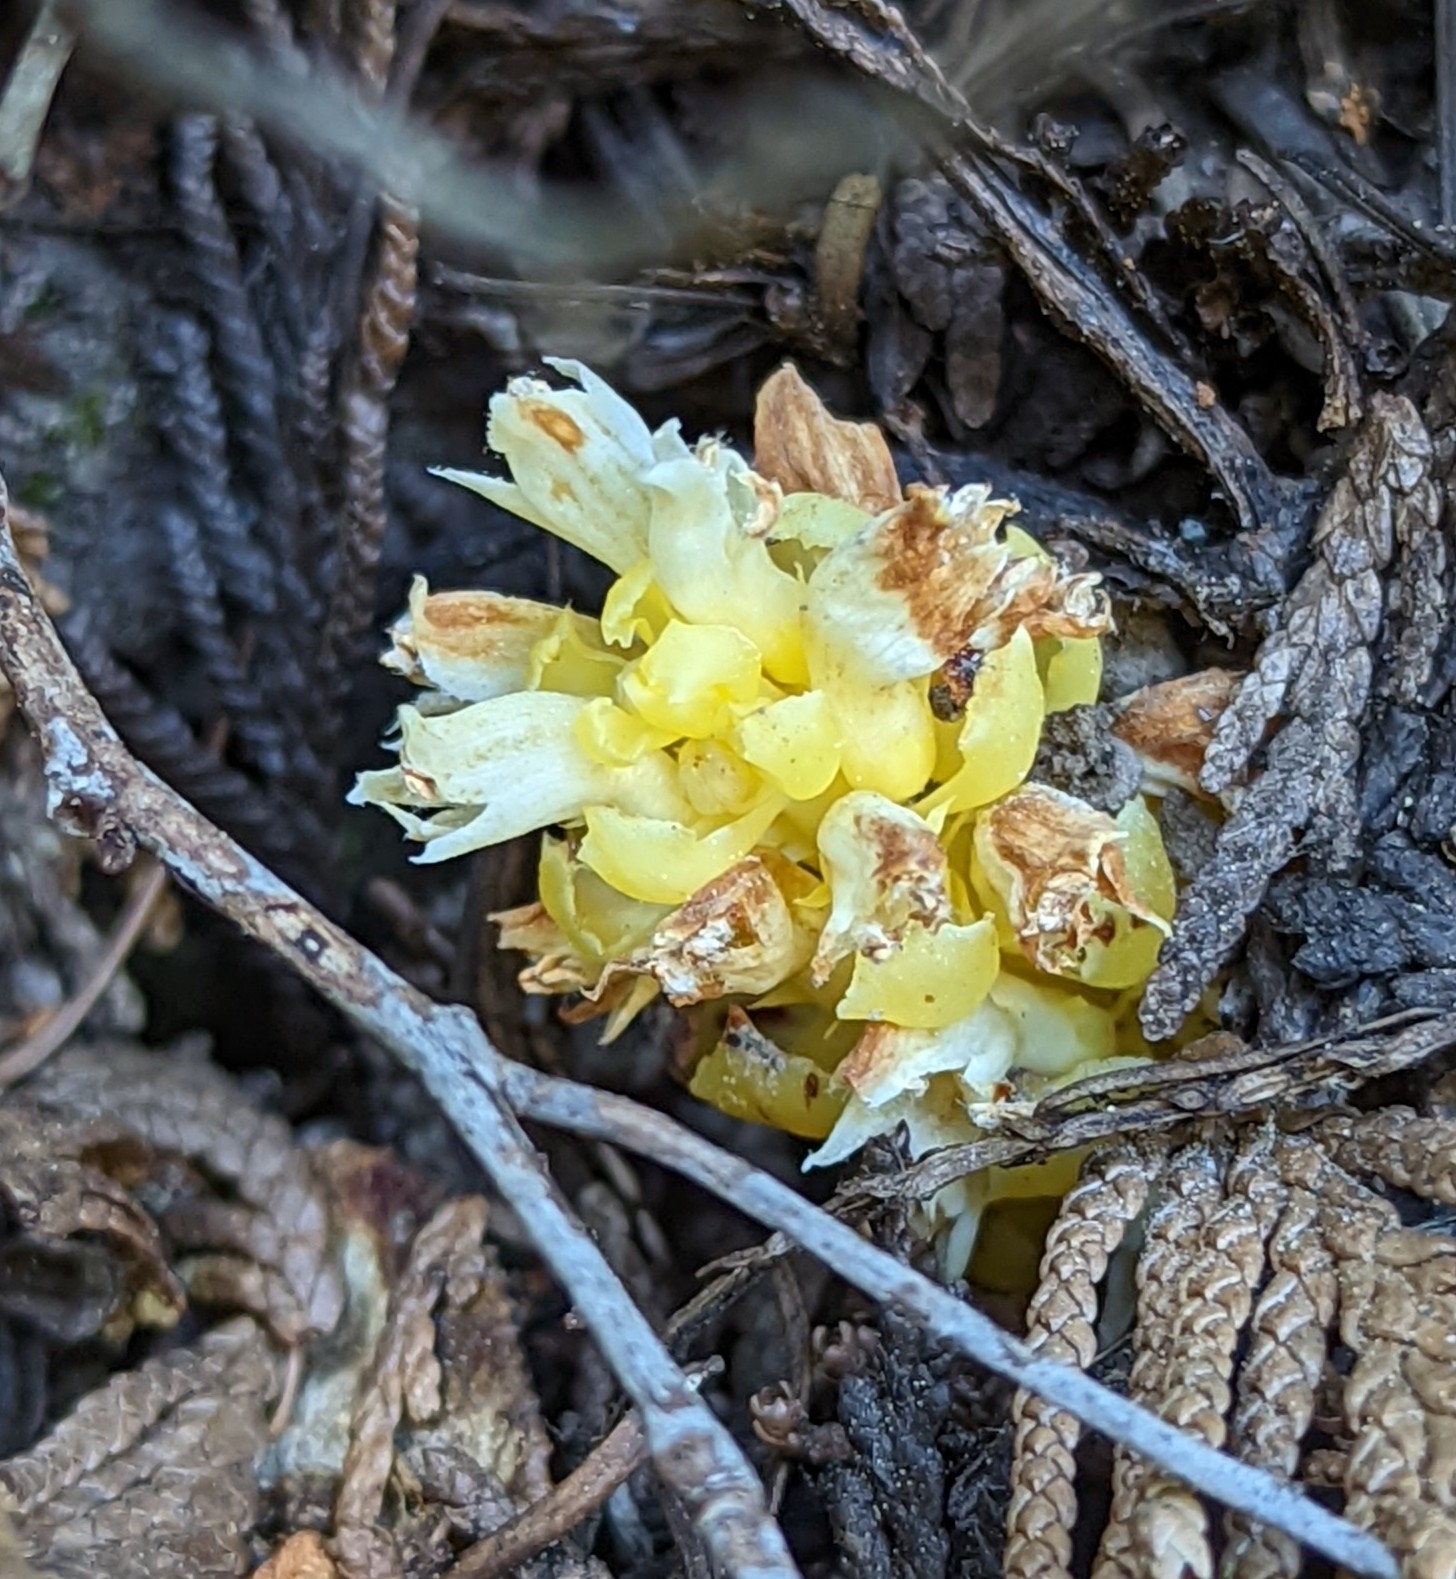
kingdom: Plantae
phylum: Tracheophyta
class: Magnoliopsida
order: Lamiales
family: Orobanchaceae
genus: Kopsiopsis
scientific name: Kopsiopsis hookeri
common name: Hooker's groundcone
